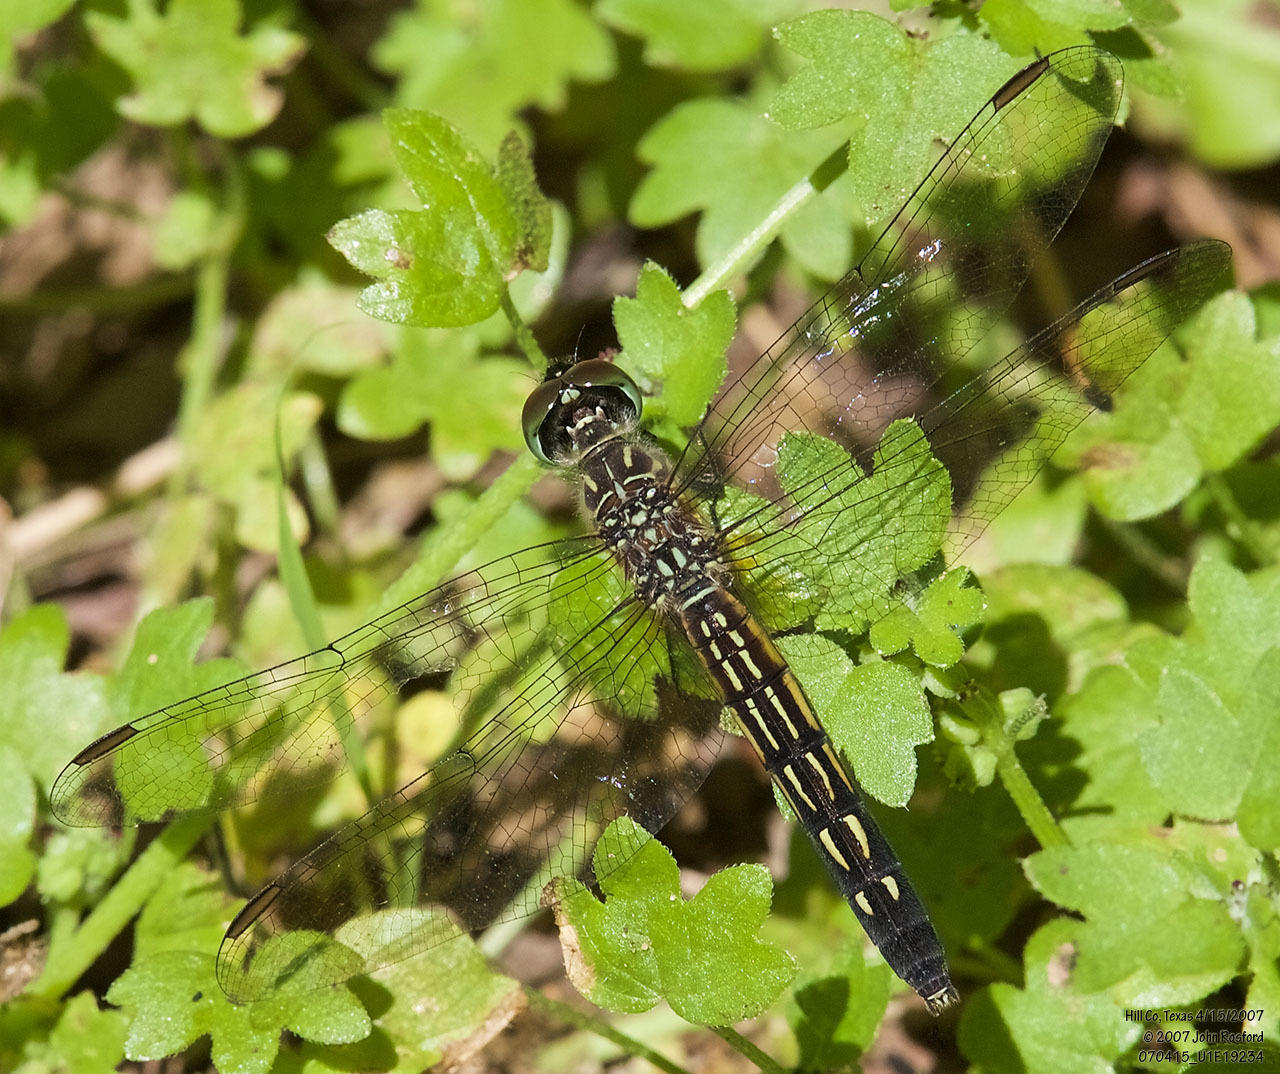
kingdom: Animalia
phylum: Arthropoda
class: Insecta
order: Odonata
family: Libellulidae
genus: Pachydiplax
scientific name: Pachydiplax longipennis
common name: Blue dasher
